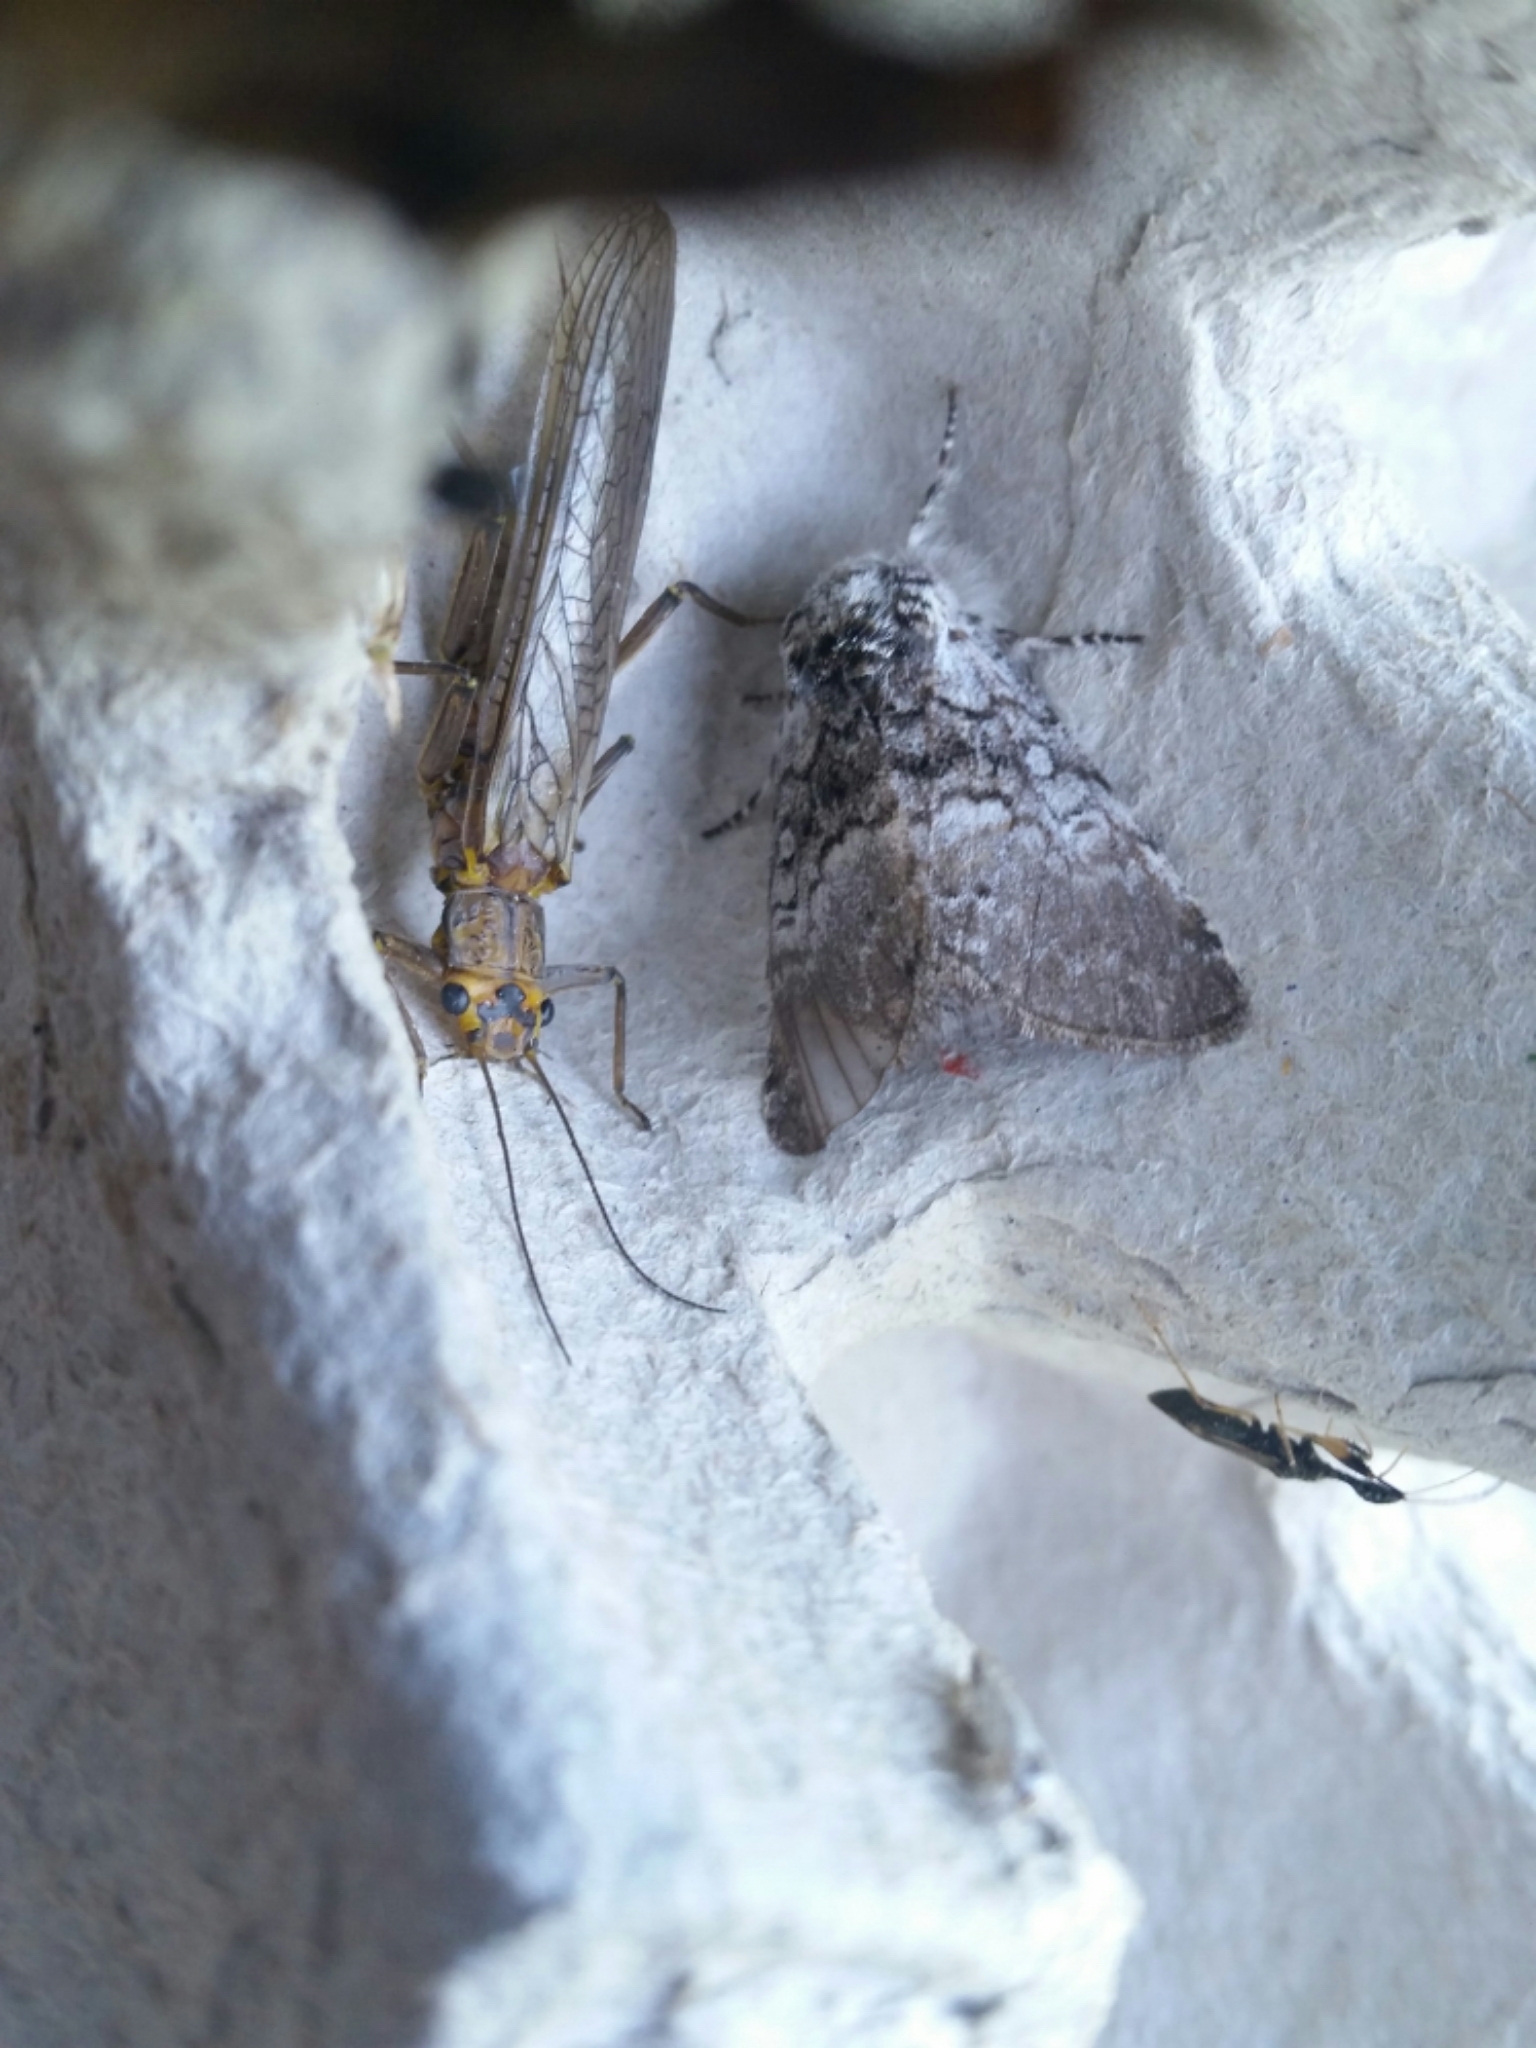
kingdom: Animalia
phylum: Arthropoda
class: Insecta
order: Lepidoptera
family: Noctuidae
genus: Colocasia
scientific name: Colocasia propinquilinea
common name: Close-banded demas
